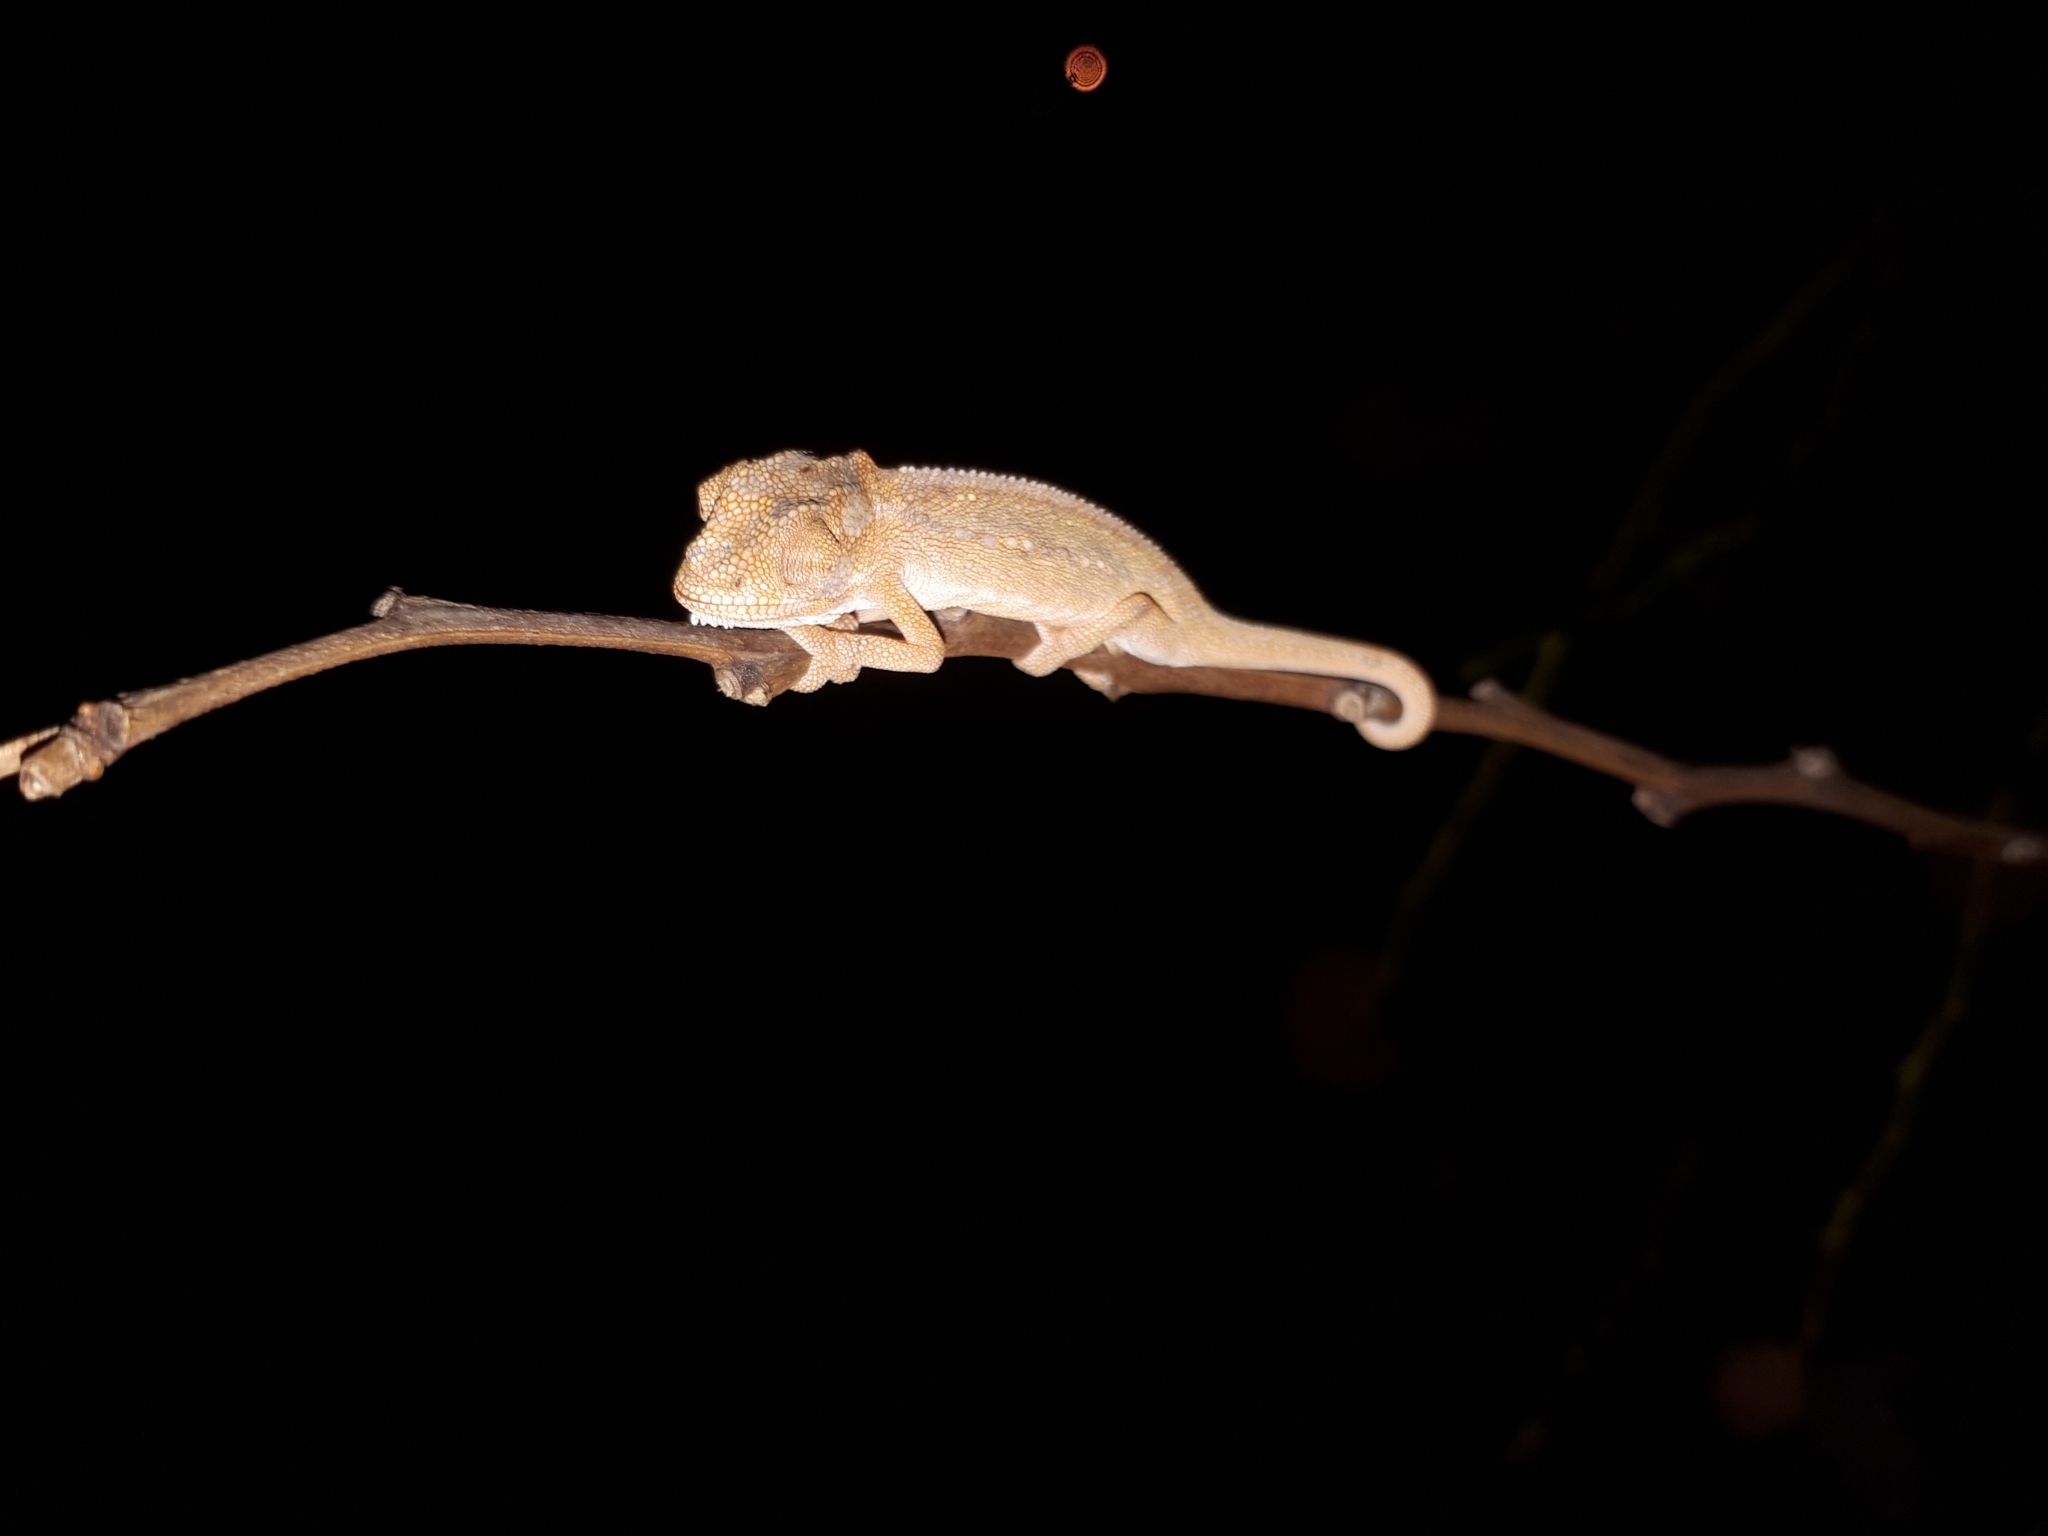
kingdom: Animalia
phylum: Chordata
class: Squamata
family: Chamaeleonidae
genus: Bradypodion
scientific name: Bradypodion pumilum
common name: Cape dwarf chameleon
